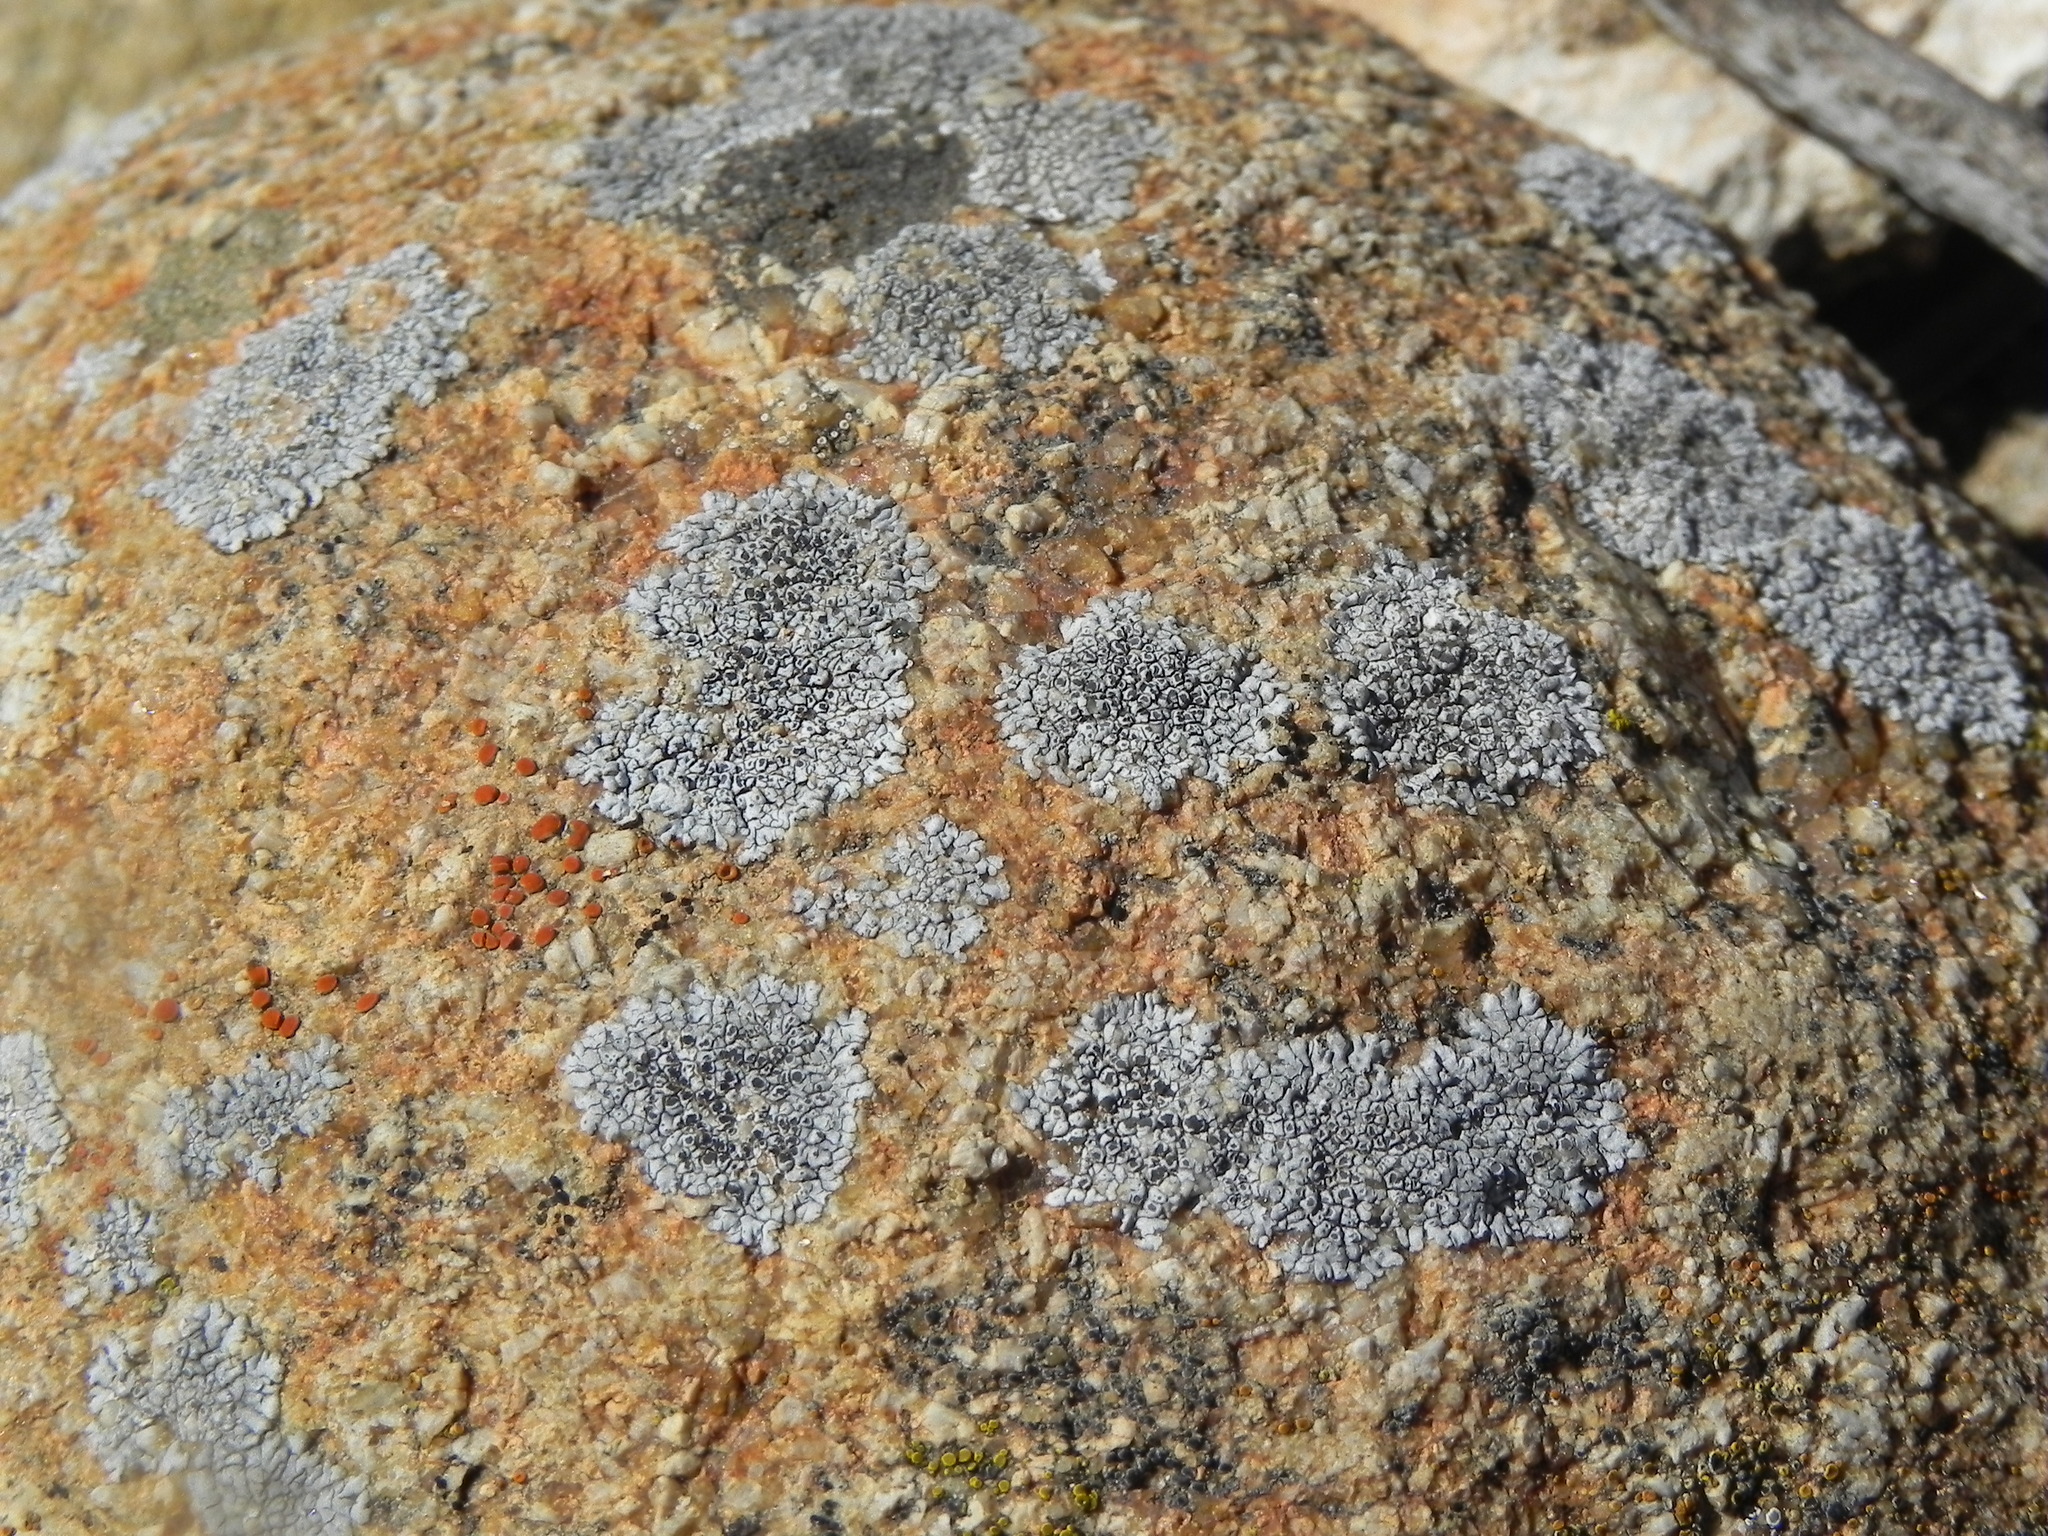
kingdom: Fungi
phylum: Ascomycota
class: Lecanoromycetes
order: Caliciales
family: Caliciaceae
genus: Dimelaena
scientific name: Dimelaena radiata
